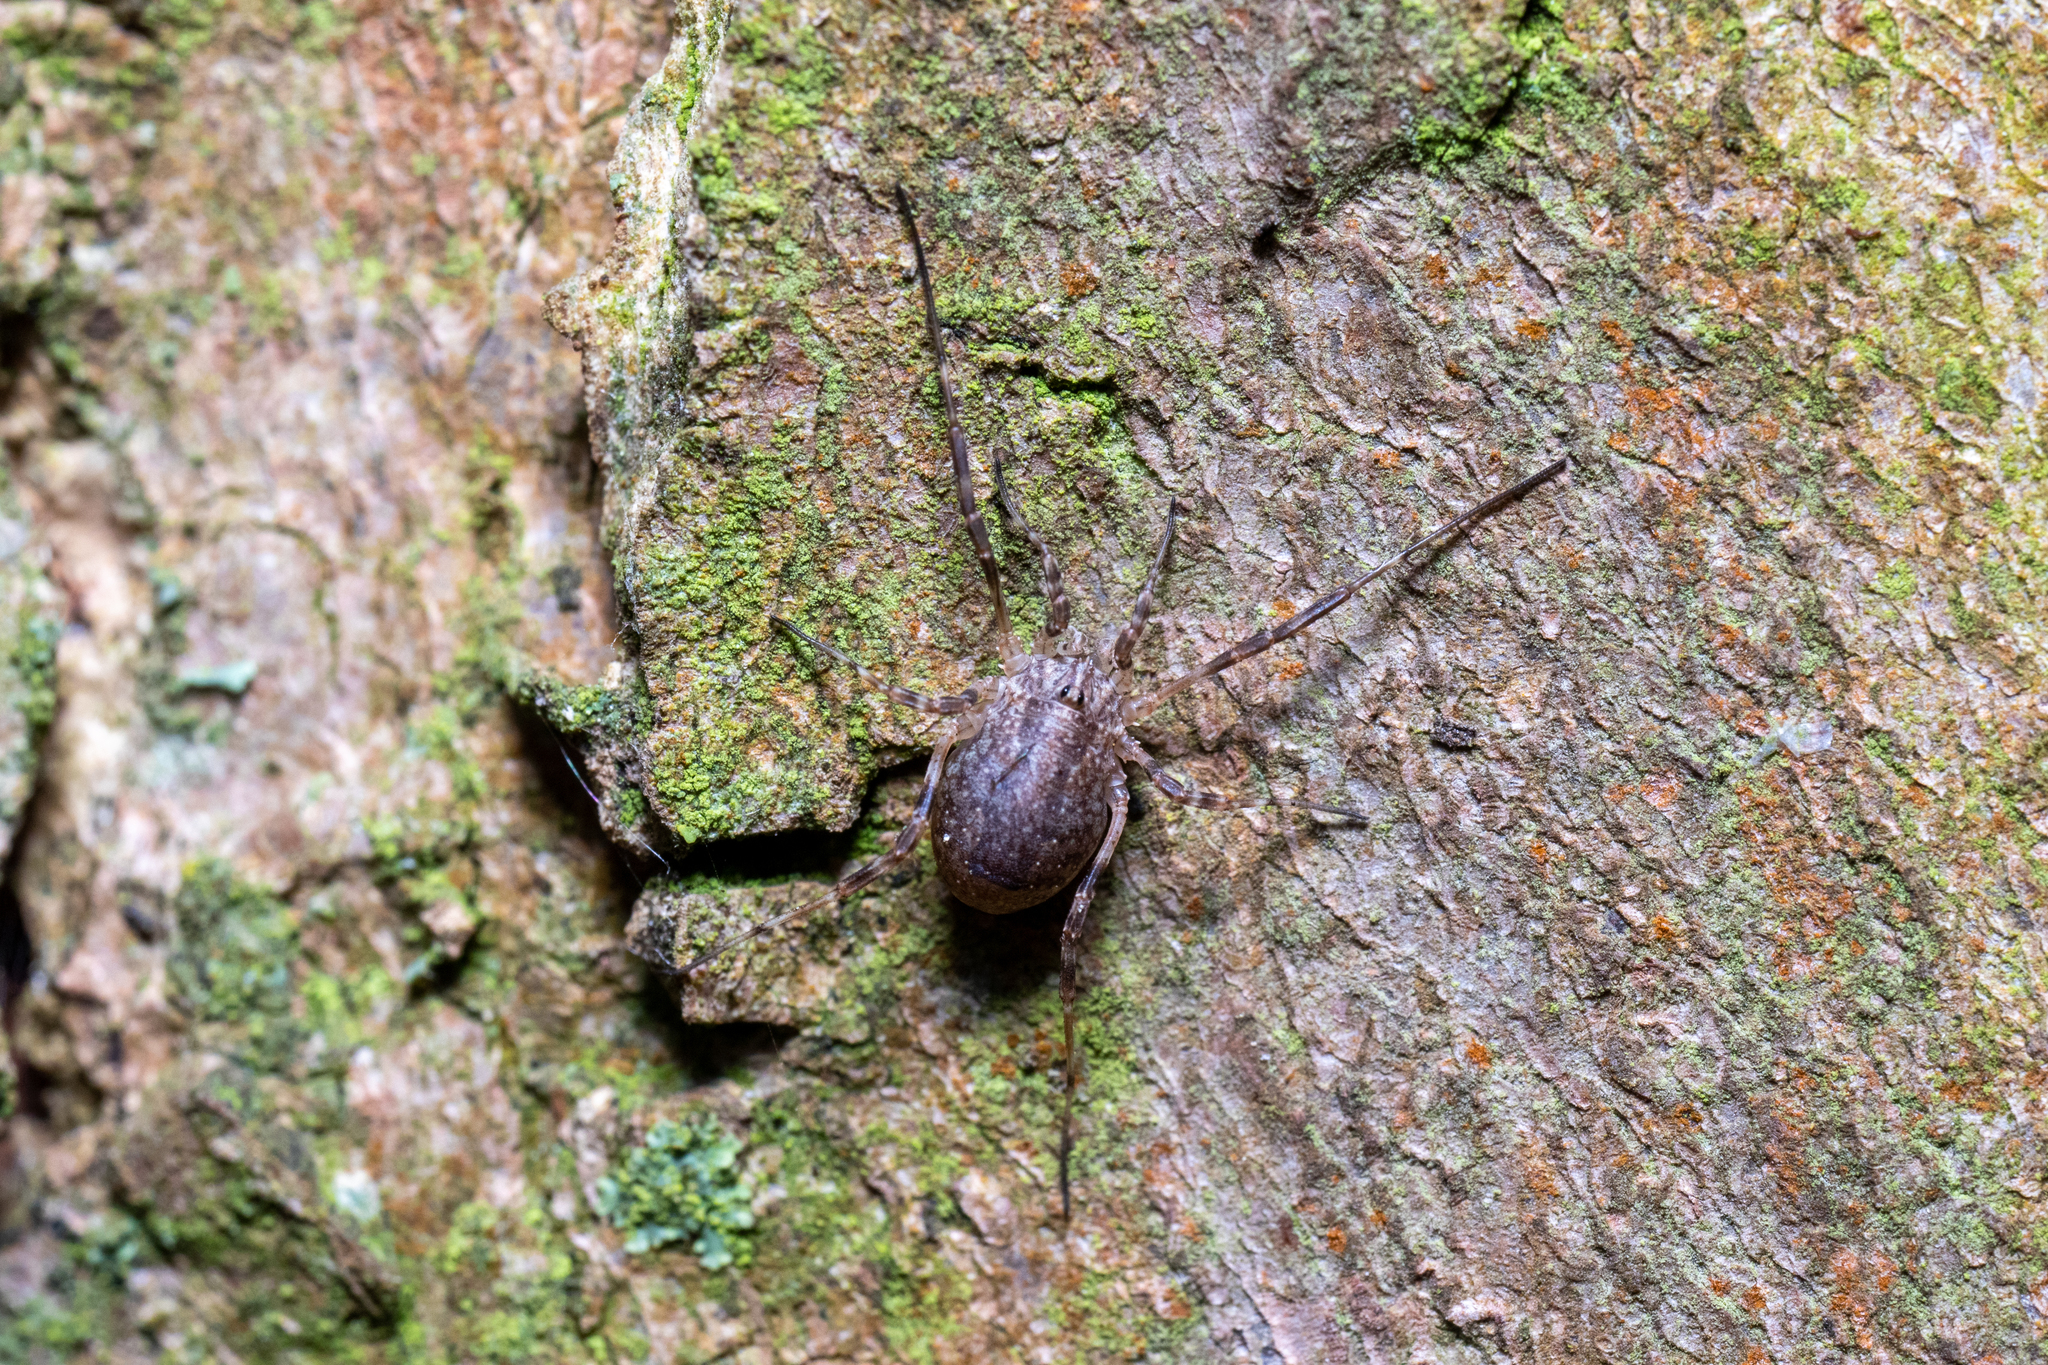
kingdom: Animalia
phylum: Arthropoda
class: Arachnida
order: Opiliones
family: Phalangiidae
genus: Odiellus
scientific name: Odiellus spinosus
